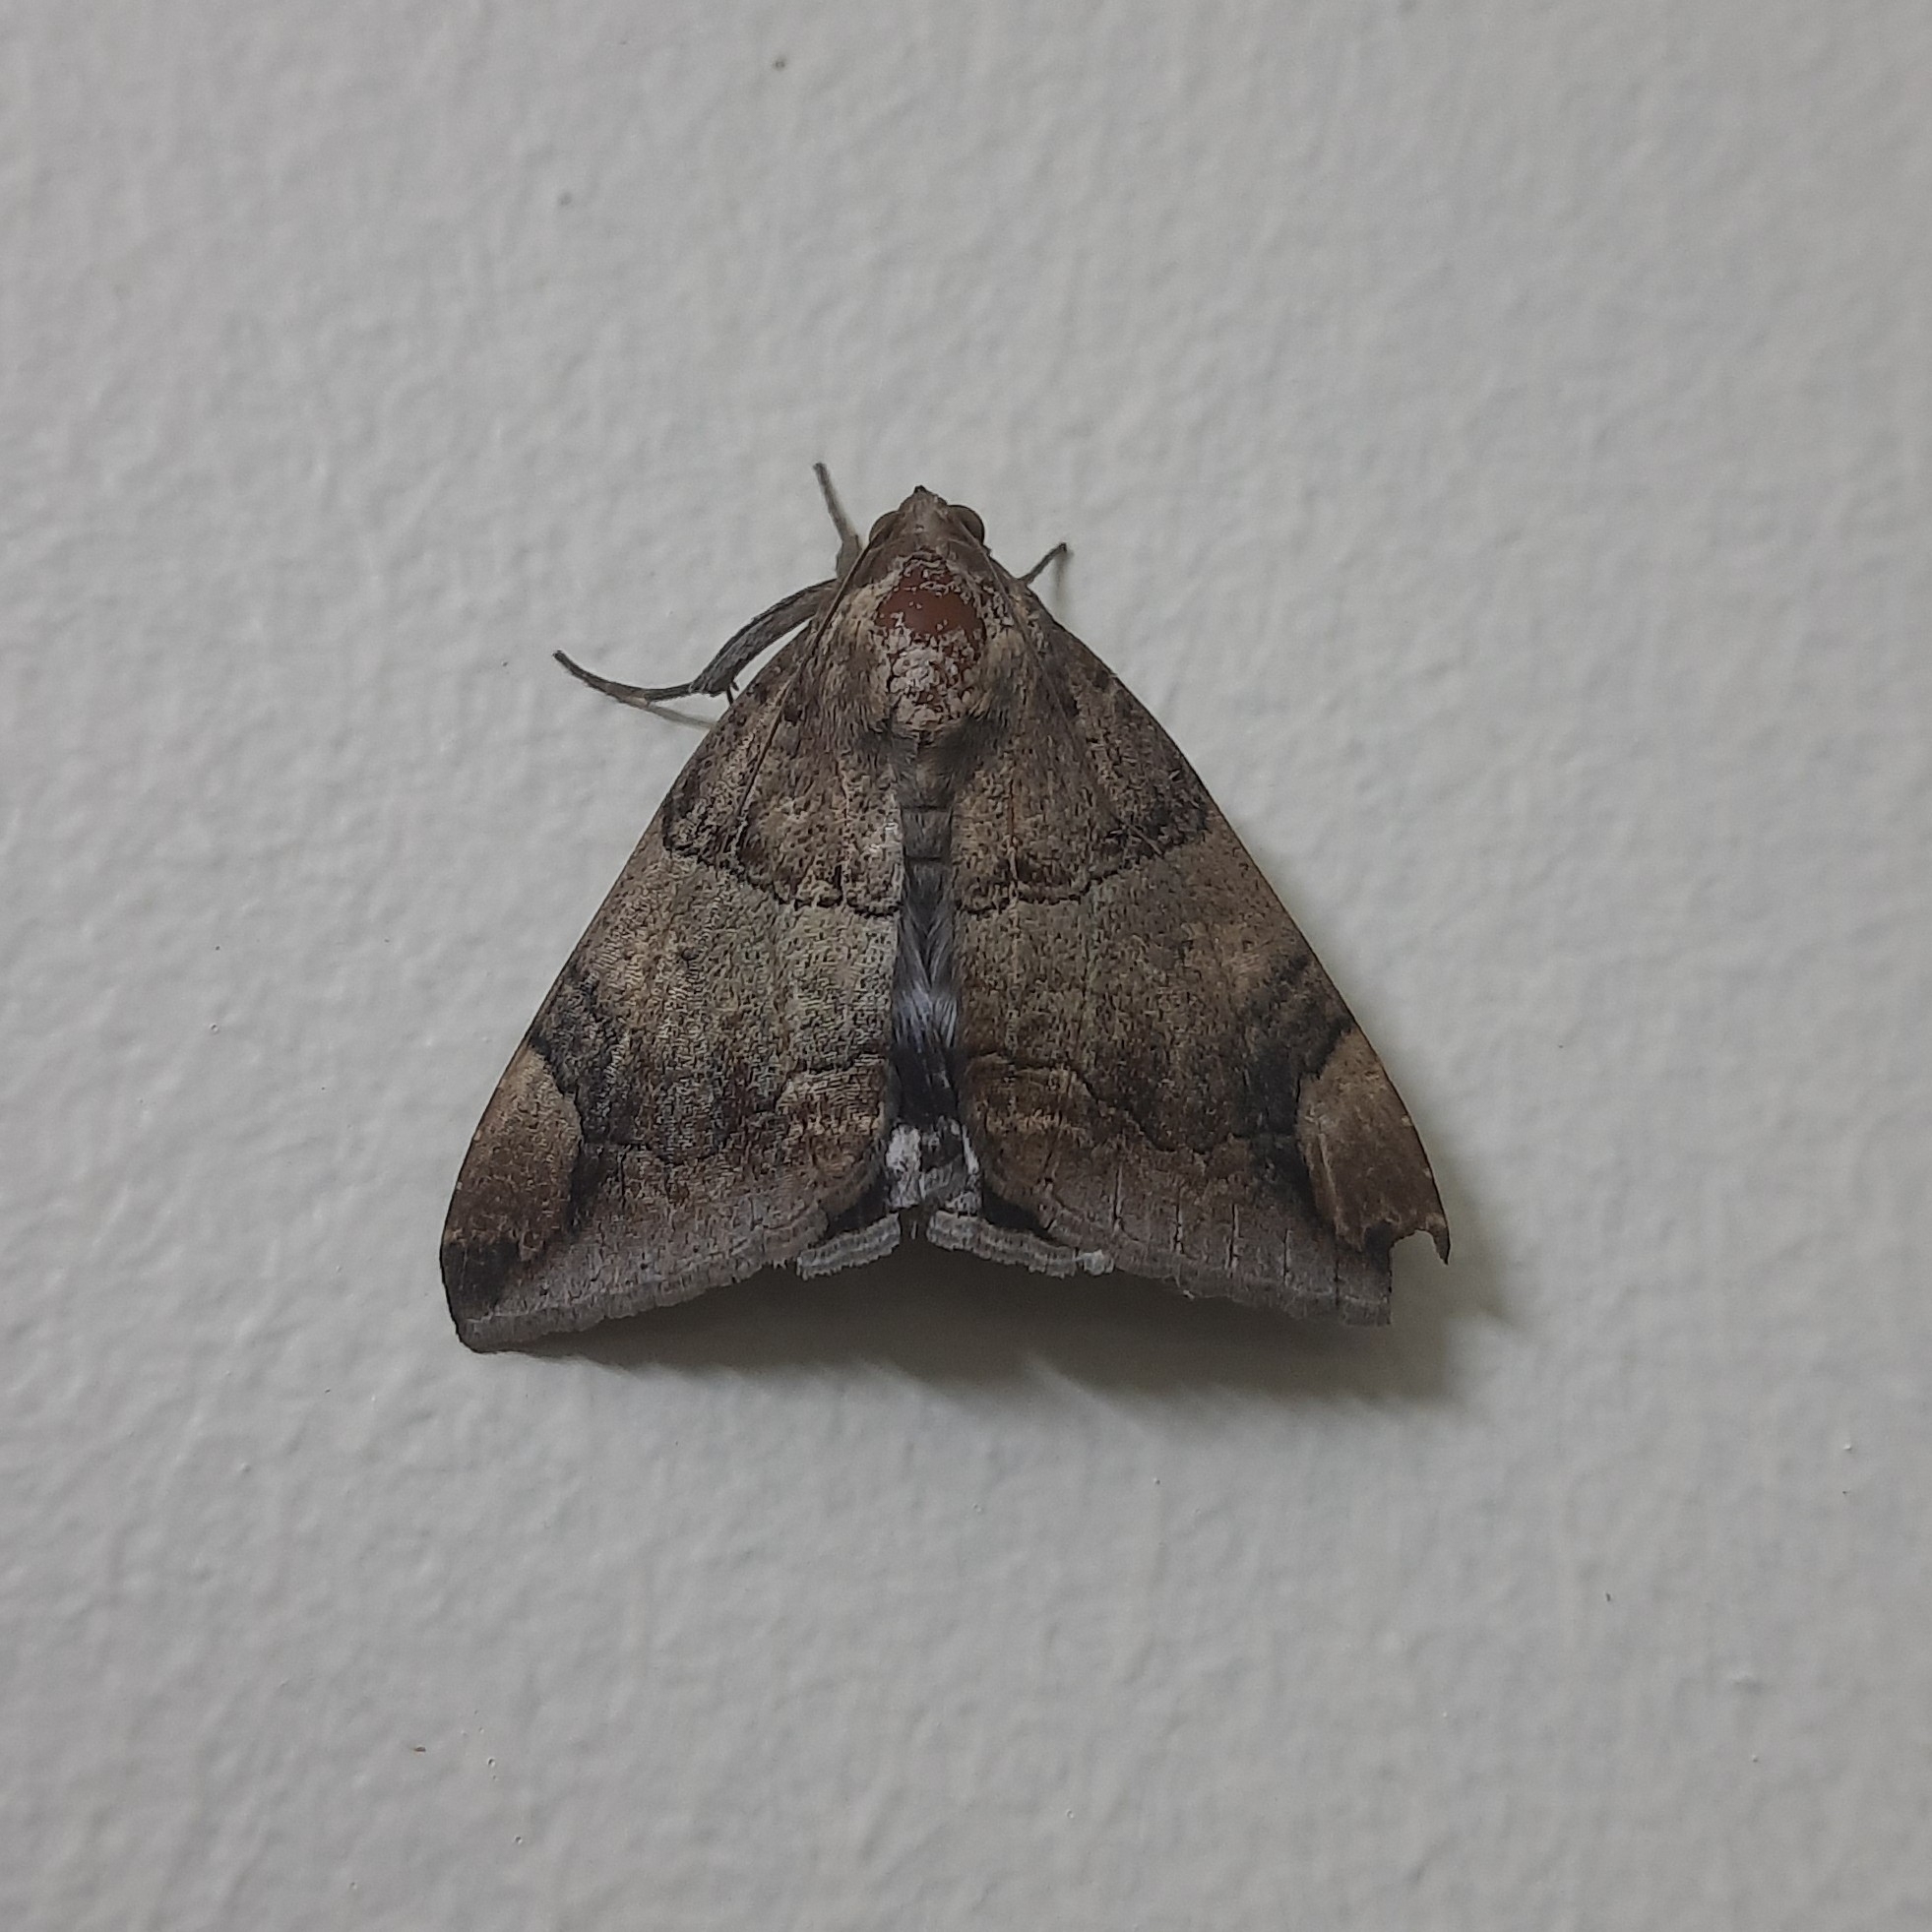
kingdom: Animalia
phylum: Arthropoda
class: Insecta
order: Lepidoptera
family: Erebidae
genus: Achaea
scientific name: Achaea janata
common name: Croton caterpillar
